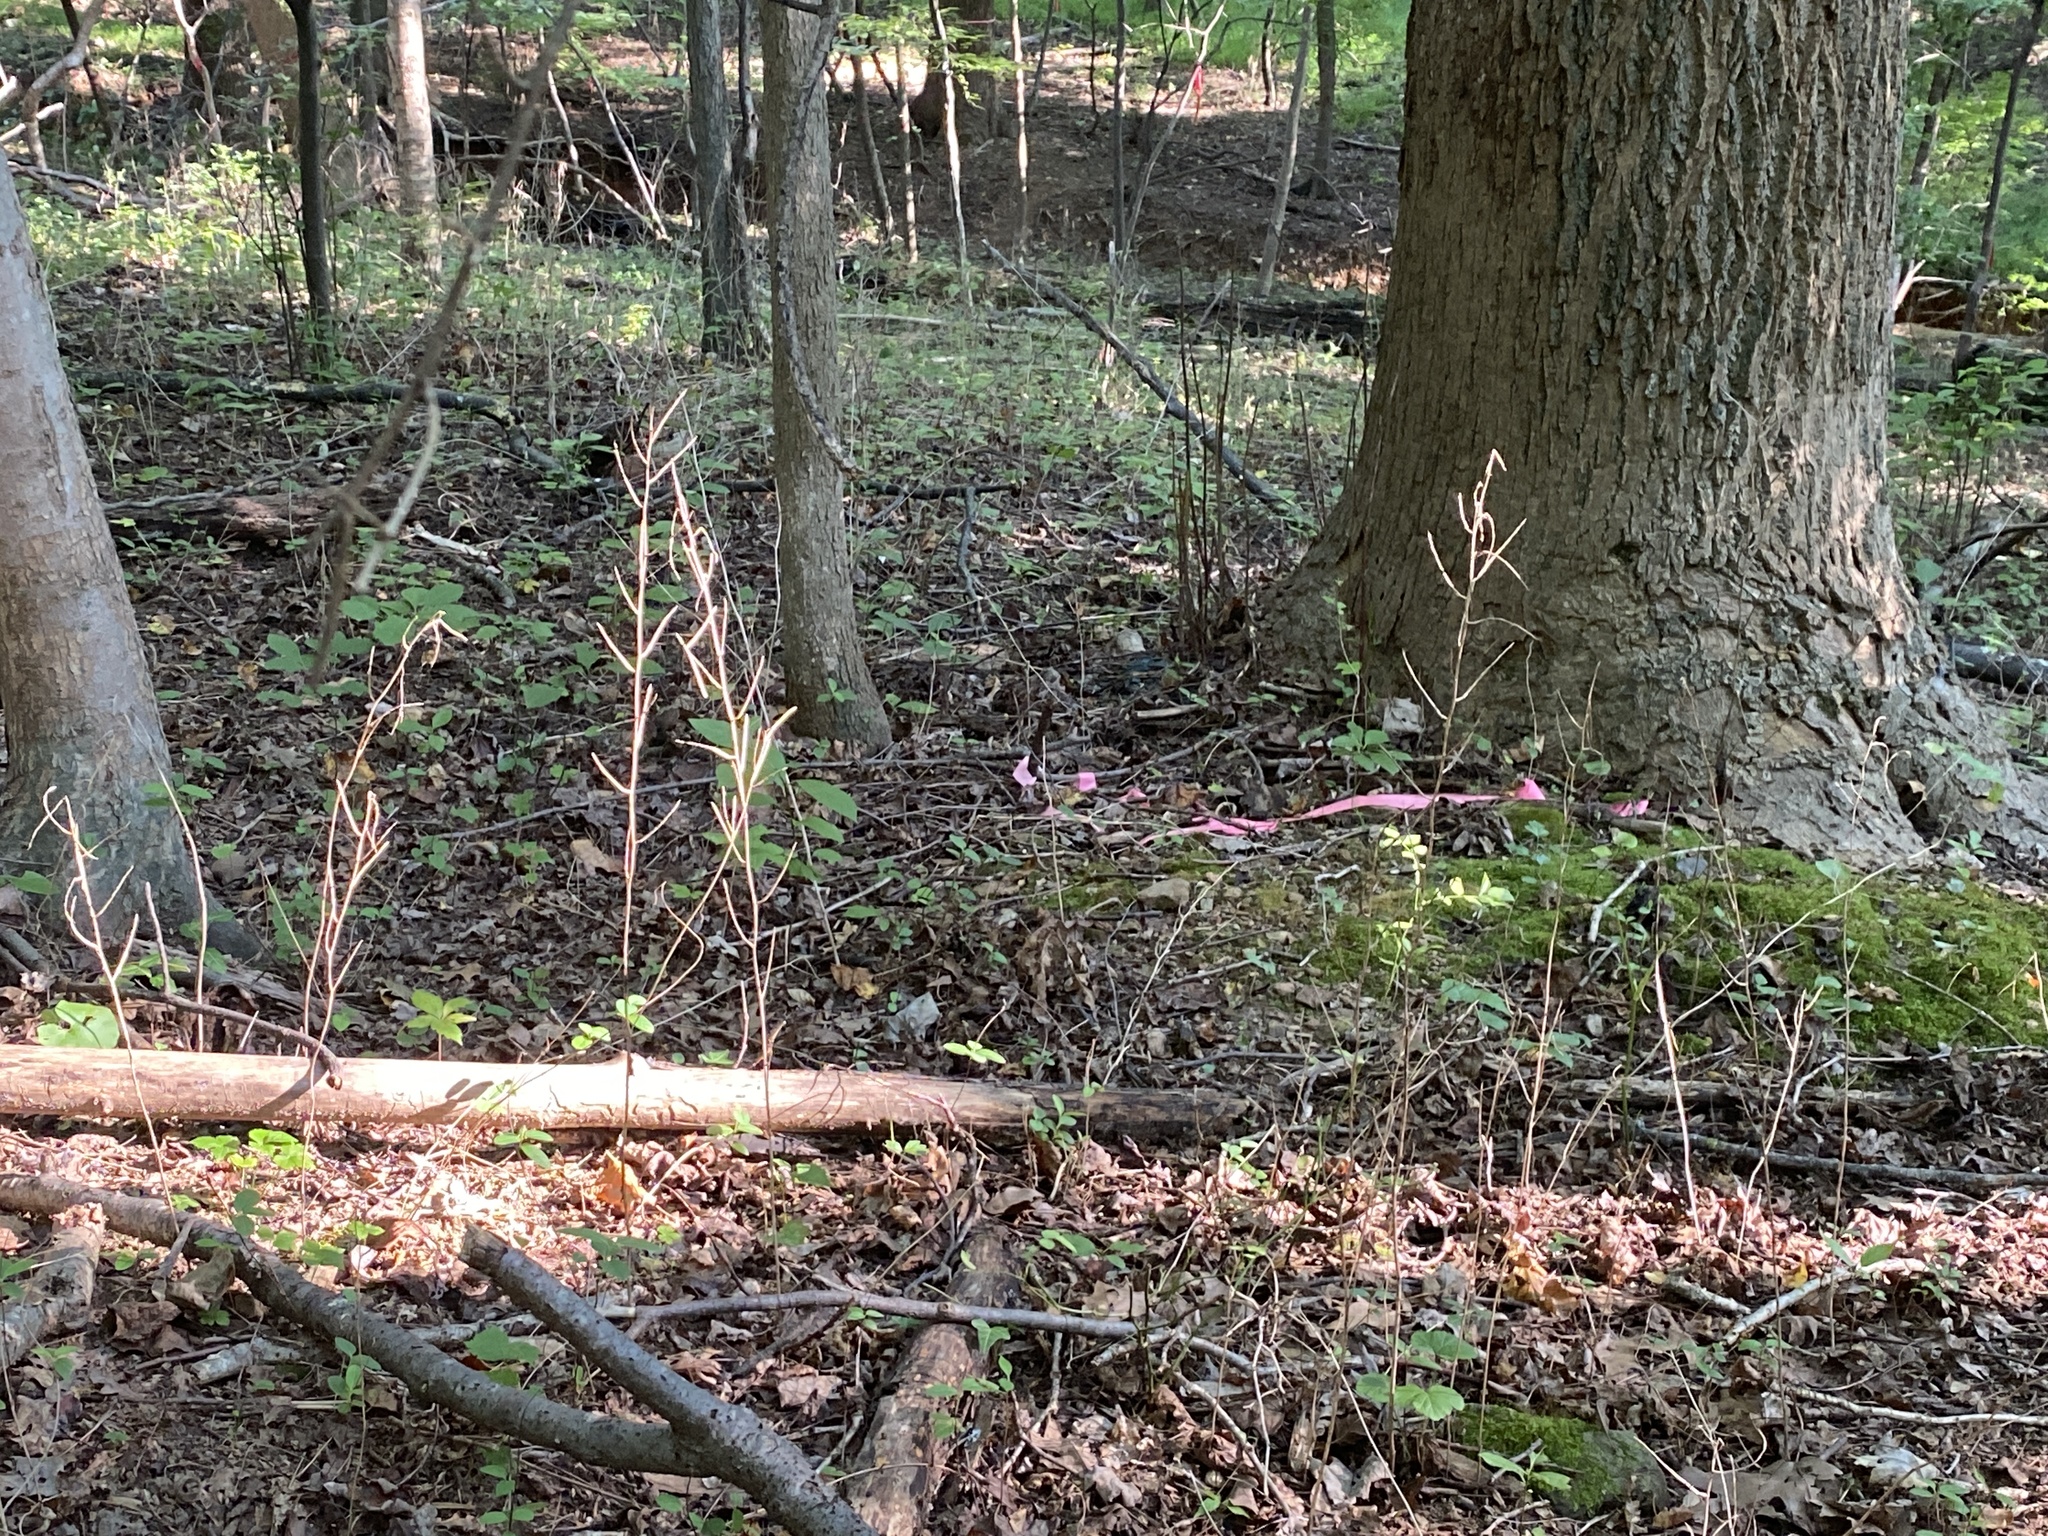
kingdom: Plantae
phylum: Tracheophyta
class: Magnoliopsida
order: Brassicales
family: Brassicaceae
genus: Alliaria
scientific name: Alliaria petiolata
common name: Garlic mustard
